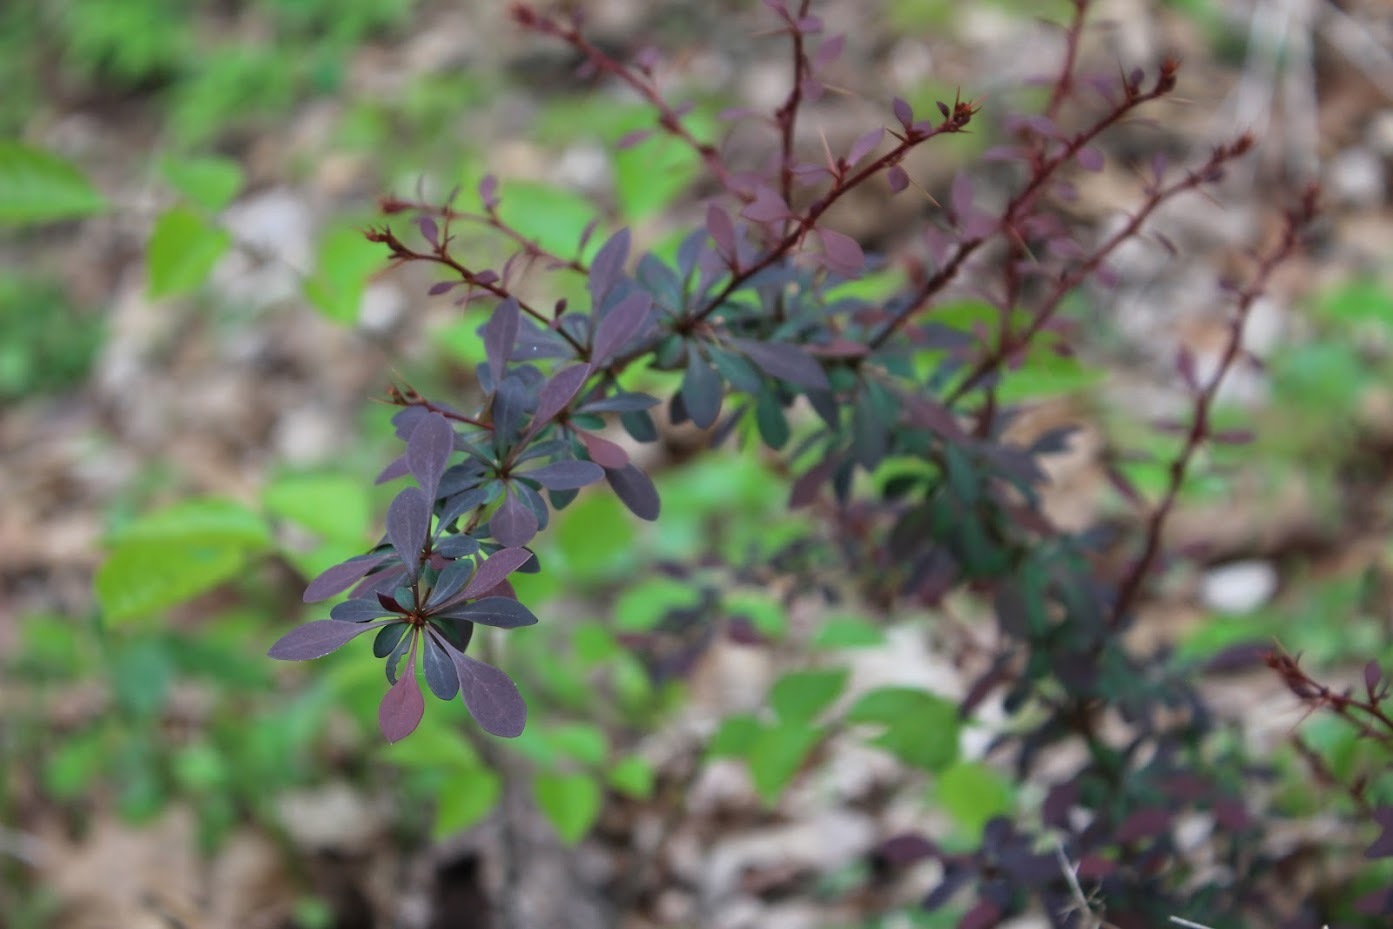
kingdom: Plantae
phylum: Tracheophyta
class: Magnoliopsida
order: Ranunculales
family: Berberidaceae
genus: Berberis
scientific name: Berberis thunbergii
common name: Japanese barberry
